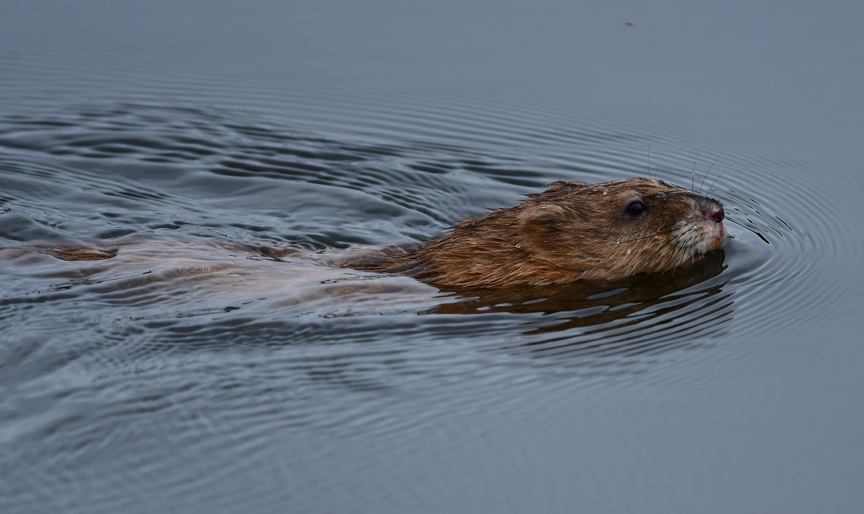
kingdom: Animalia
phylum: Chordata
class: Mammalia
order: Rodentia
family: Cricetidae
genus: Ondatra
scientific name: Ondatra zibethicus
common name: Muskrat
